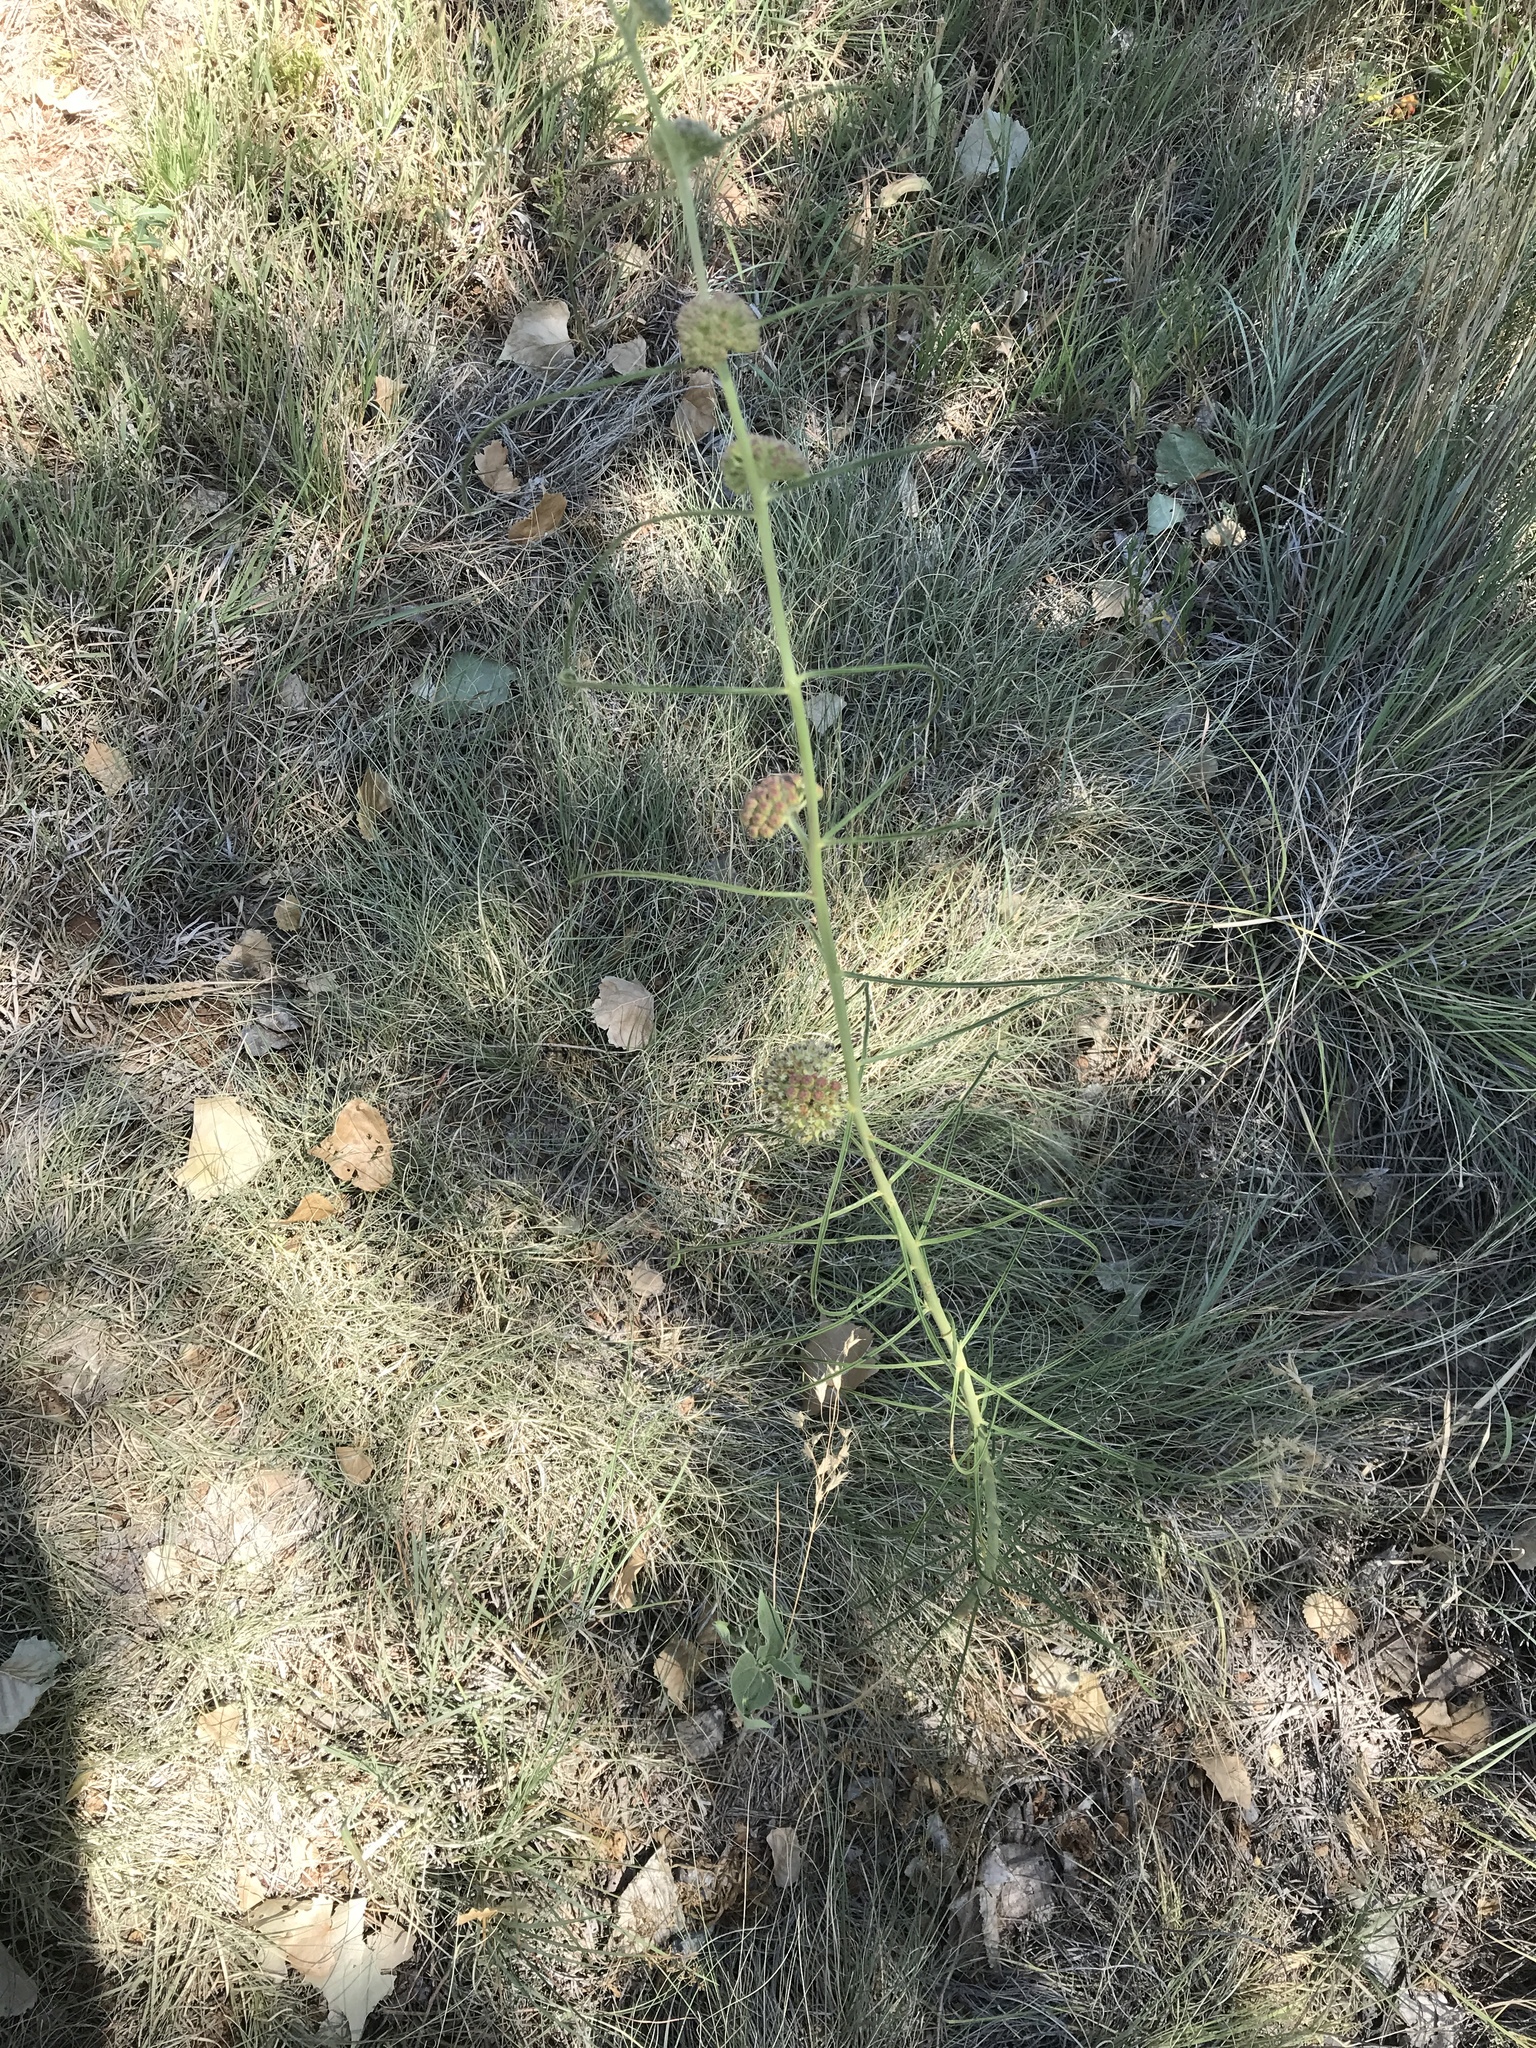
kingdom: Plantae
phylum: Tracheophyta
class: Magnoliopsida
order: Gentianales
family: Apocynaceae
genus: Asclepias
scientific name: Asclepias engelmanniana
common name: Engelmann's milkweed
